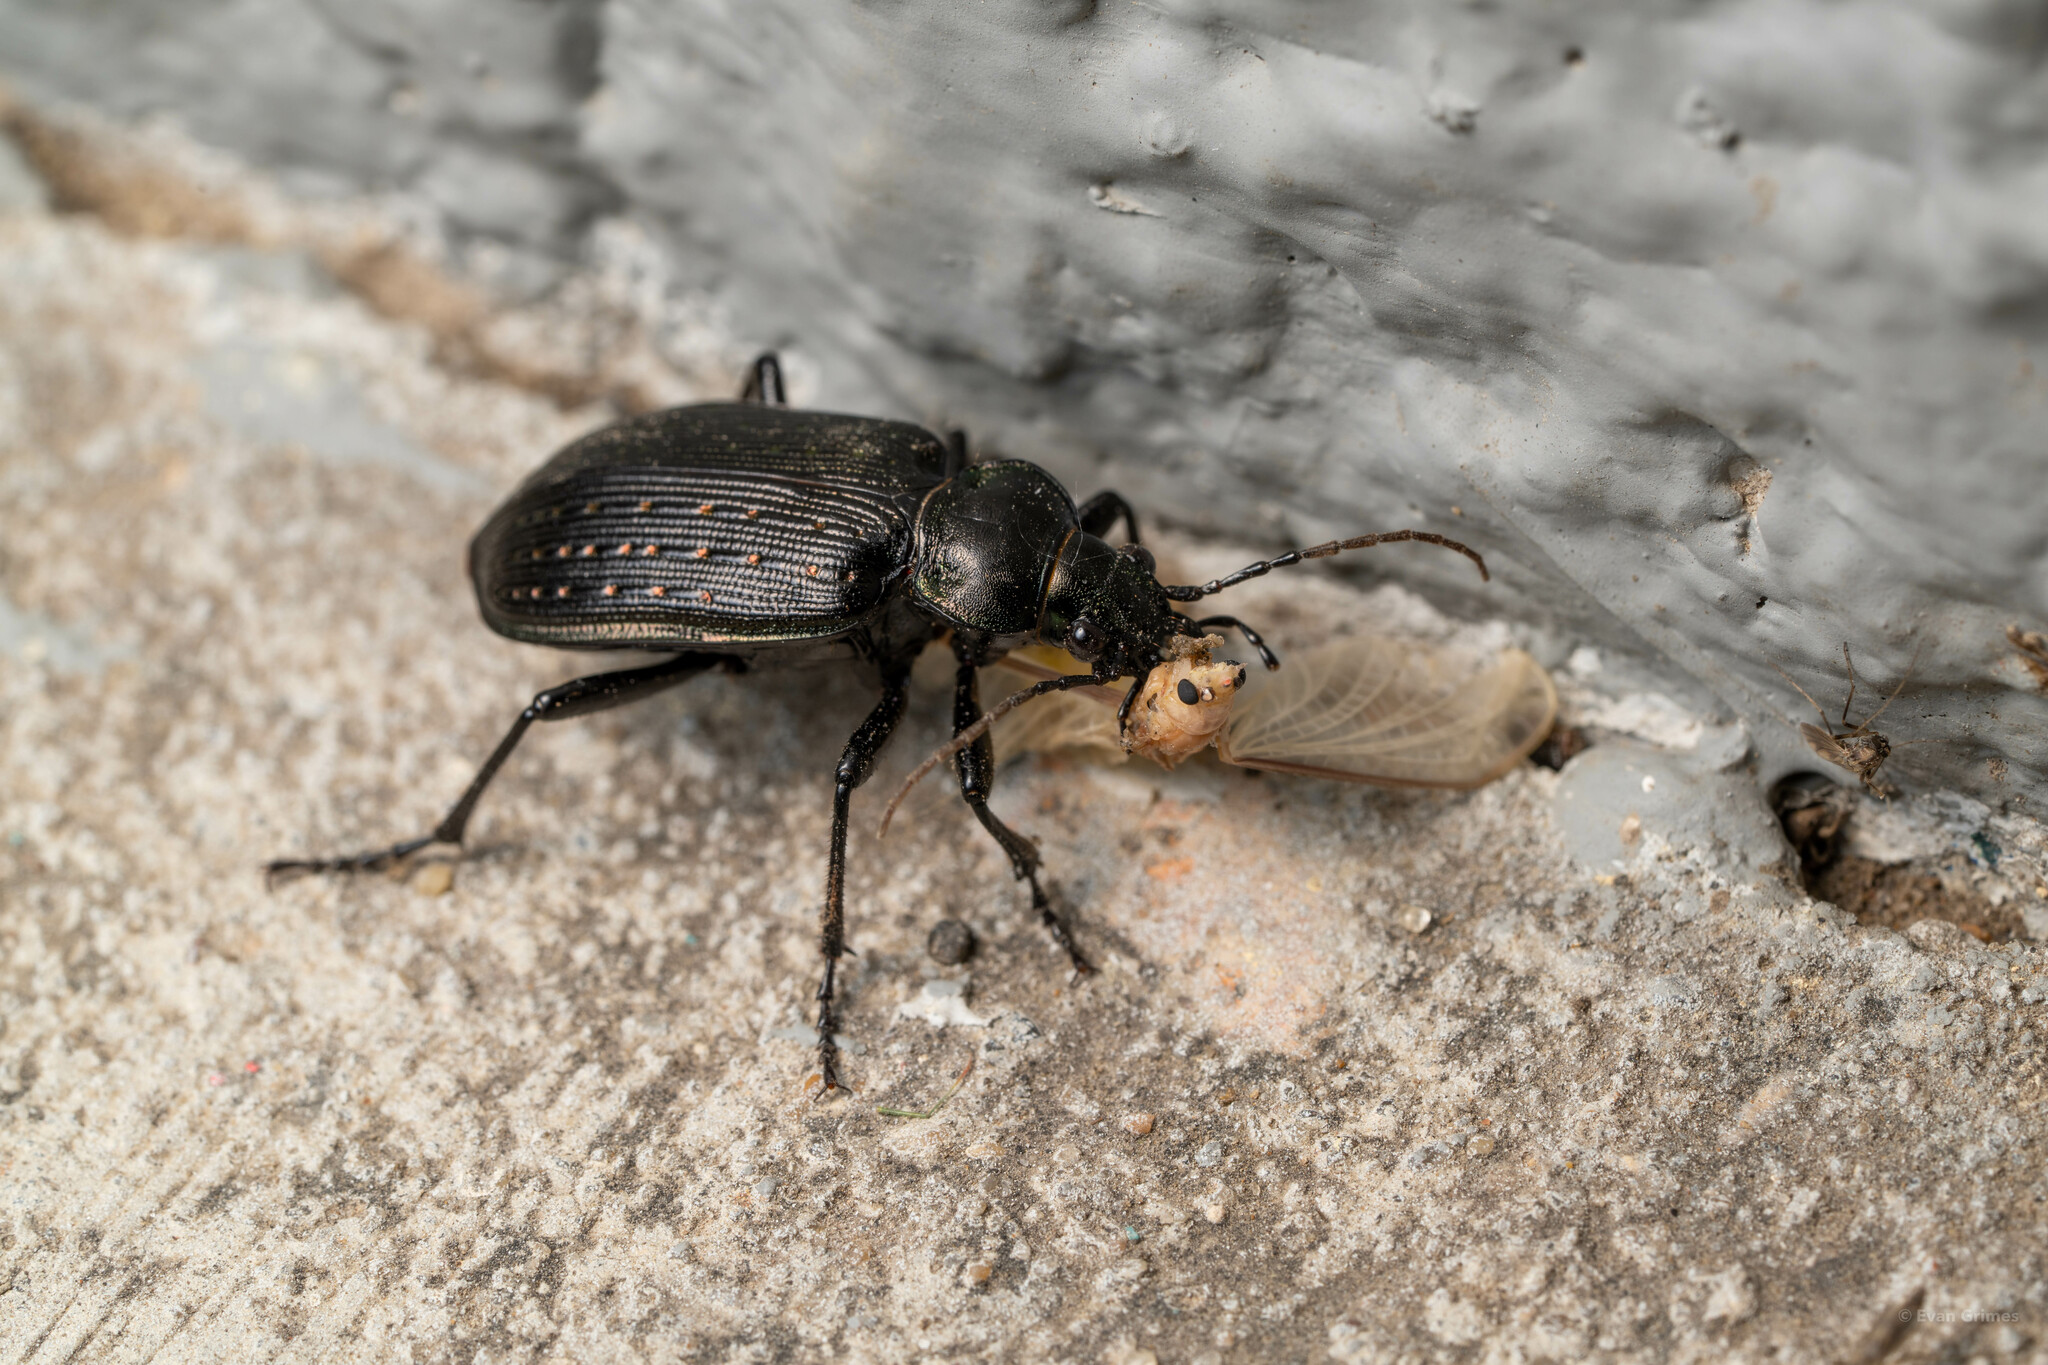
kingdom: Animalia
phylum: Arthropoda
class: Insecta
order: Coleoptera
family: Carabidae
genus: Calosoma
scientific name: Calosoma sayi
